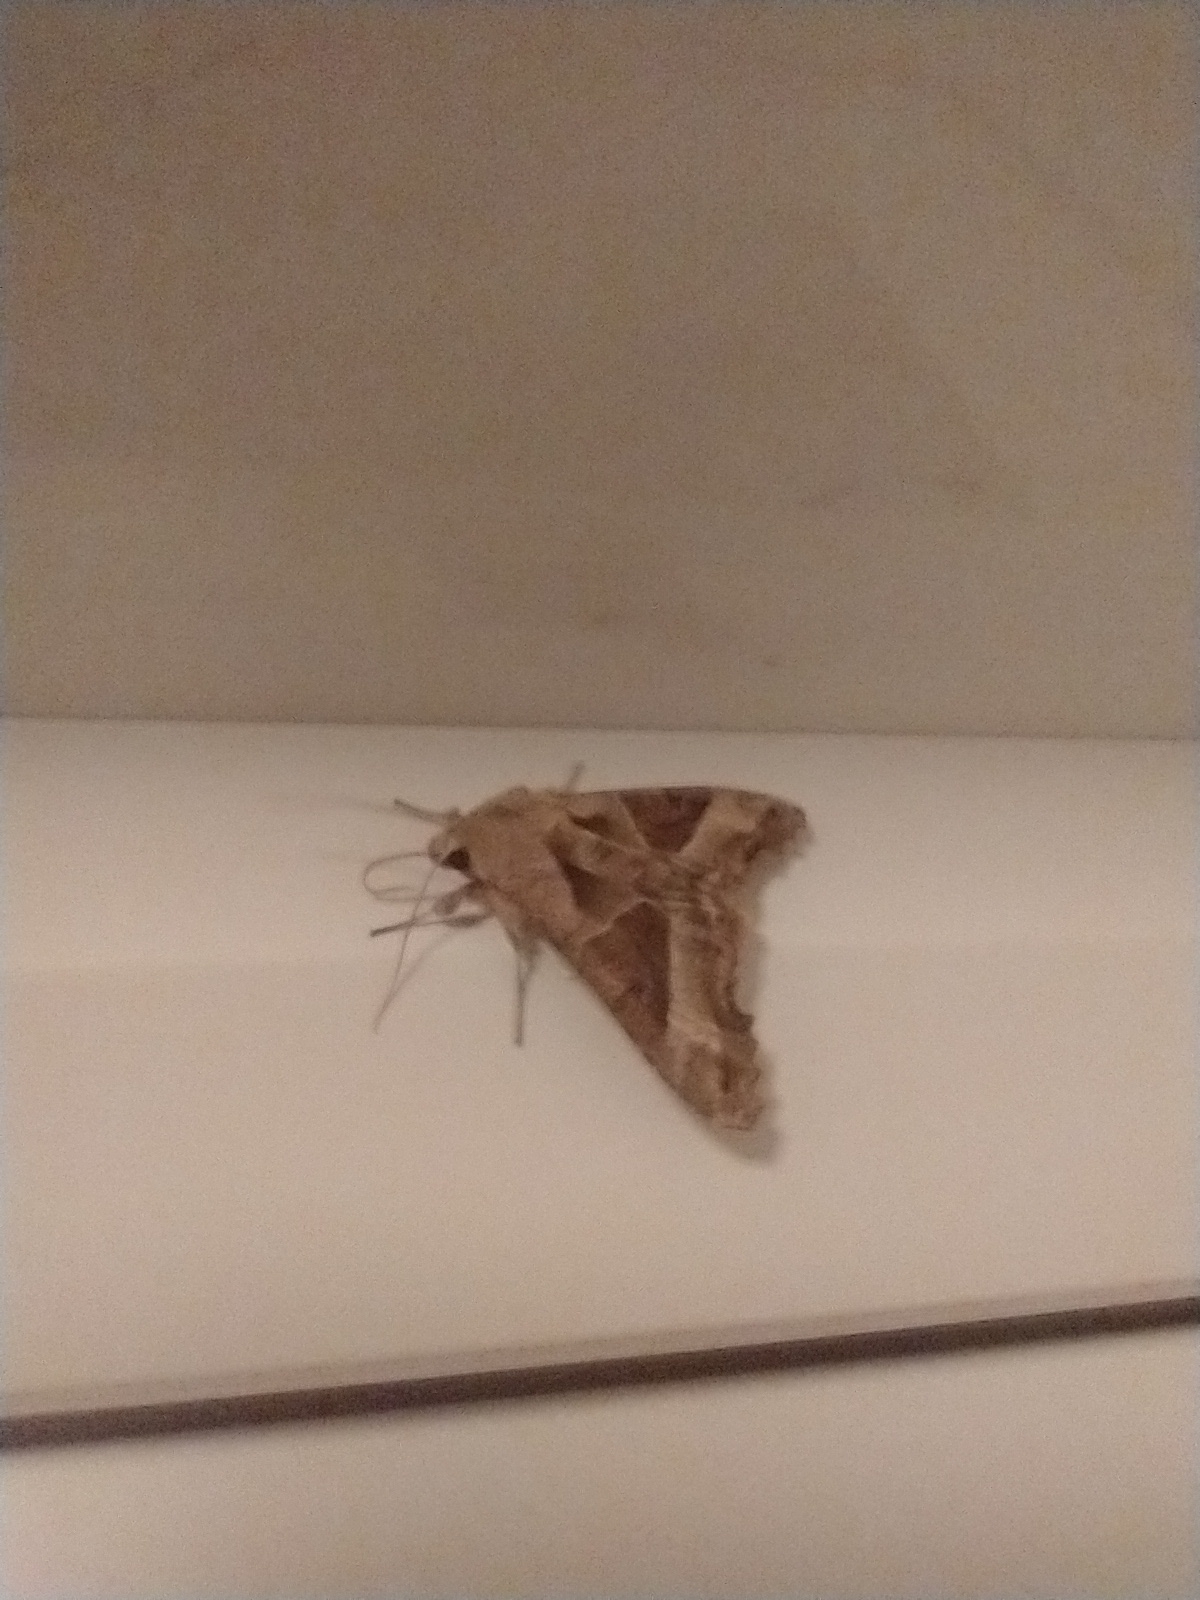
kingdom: Animalia
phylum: Arthropoda
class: Insecta
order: Lepidoptera
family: Noctuidae
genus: Phlogophora
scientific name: Phlogophora meticulosa
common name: Angle shades
